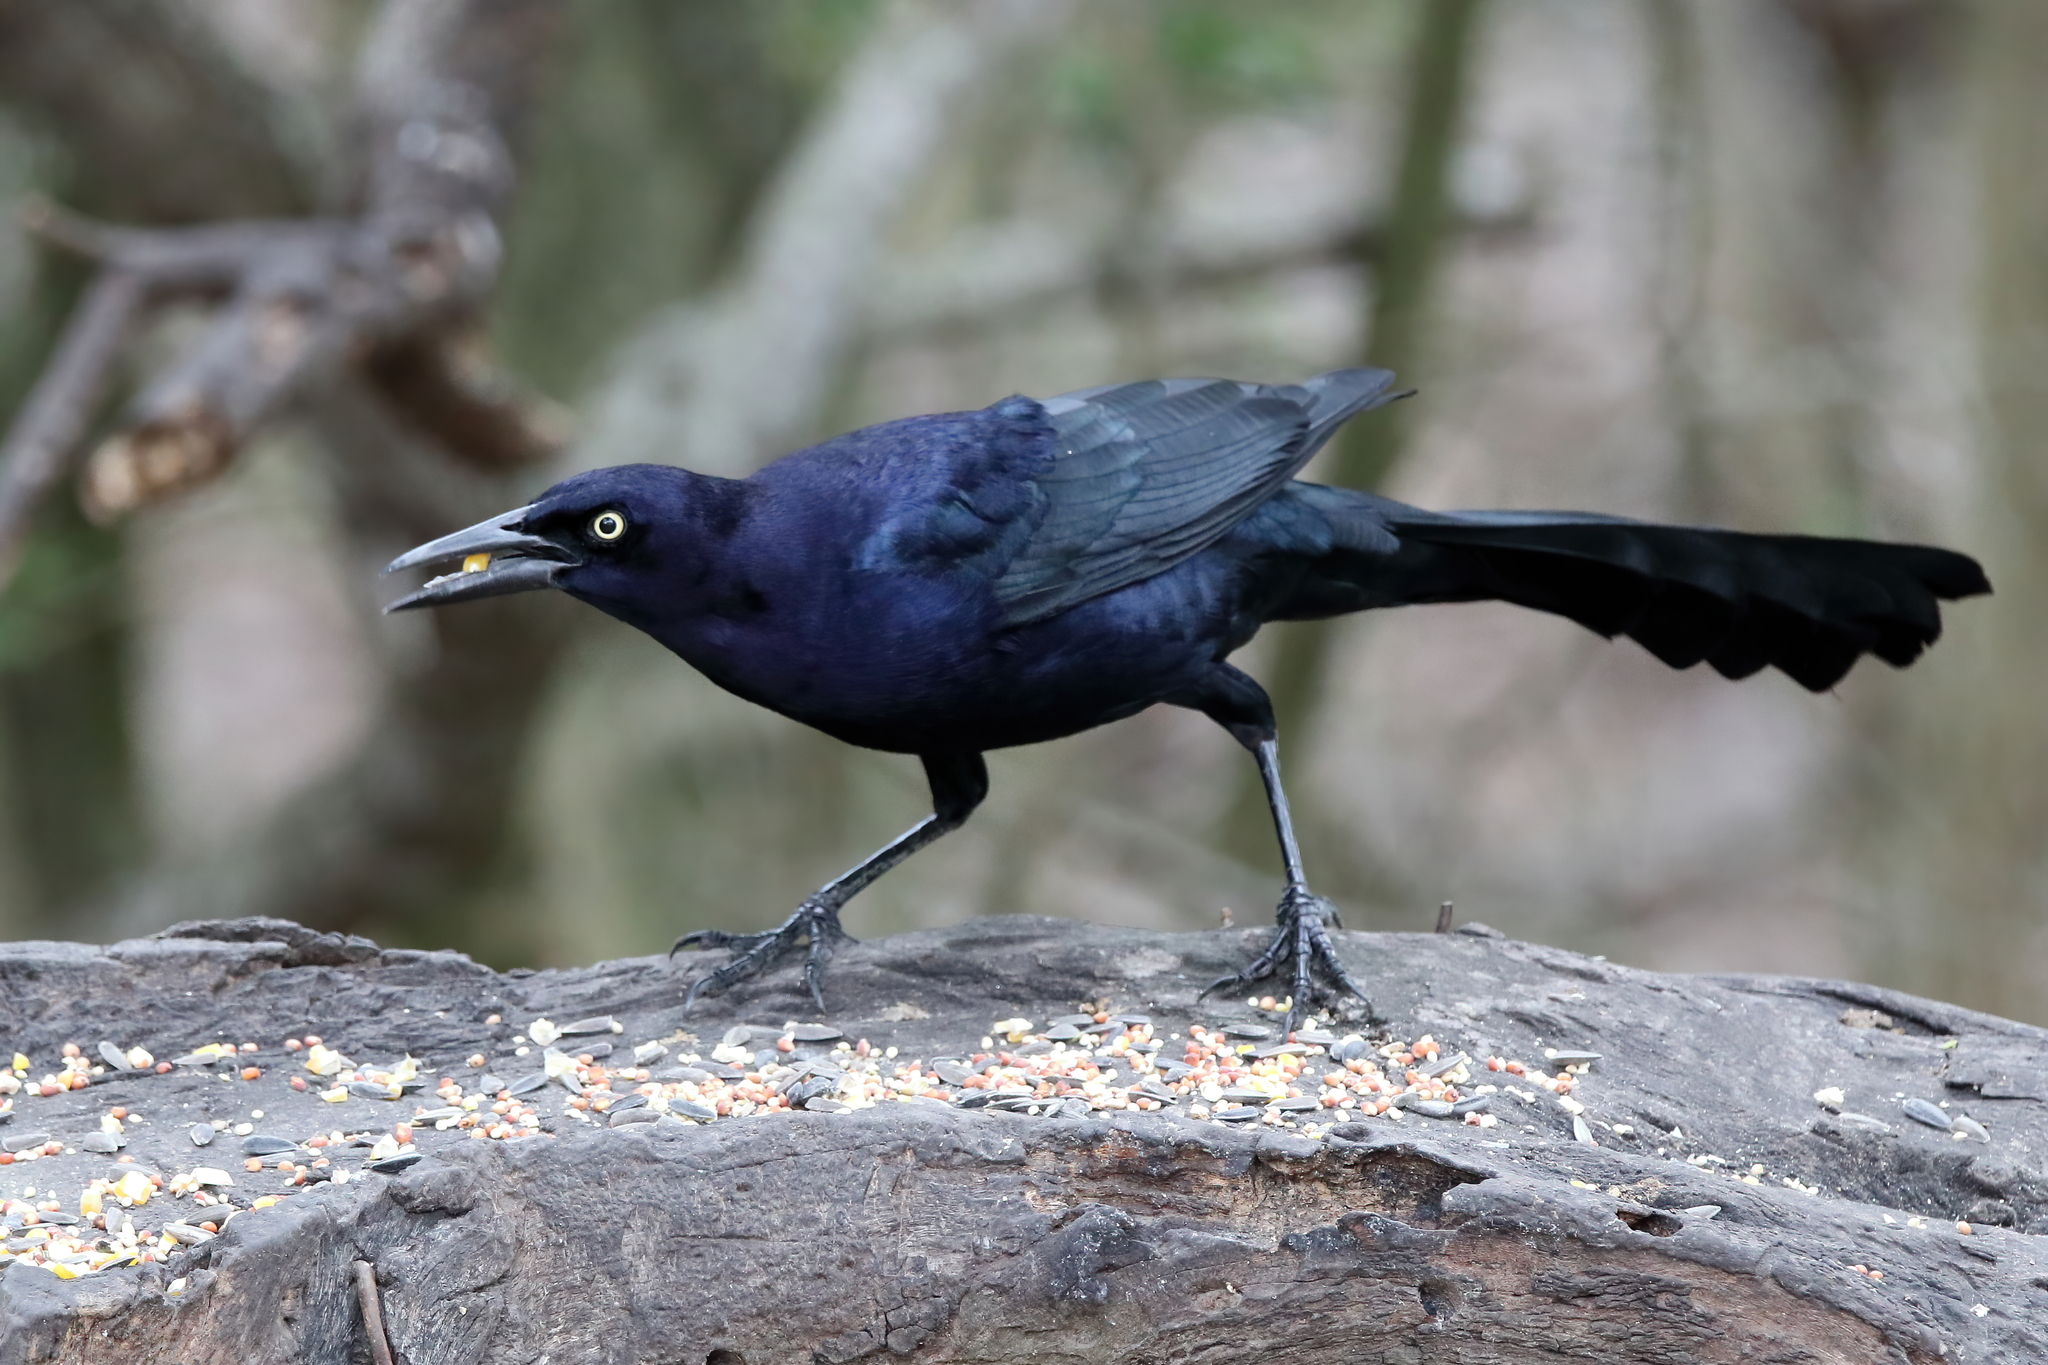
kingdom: Animalia
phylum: Chordata
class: Aves
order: Passeriformes
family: Icteridae
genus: Quiscalus
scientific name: Quiscalus mexicanus
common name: Great-tailed grackle
